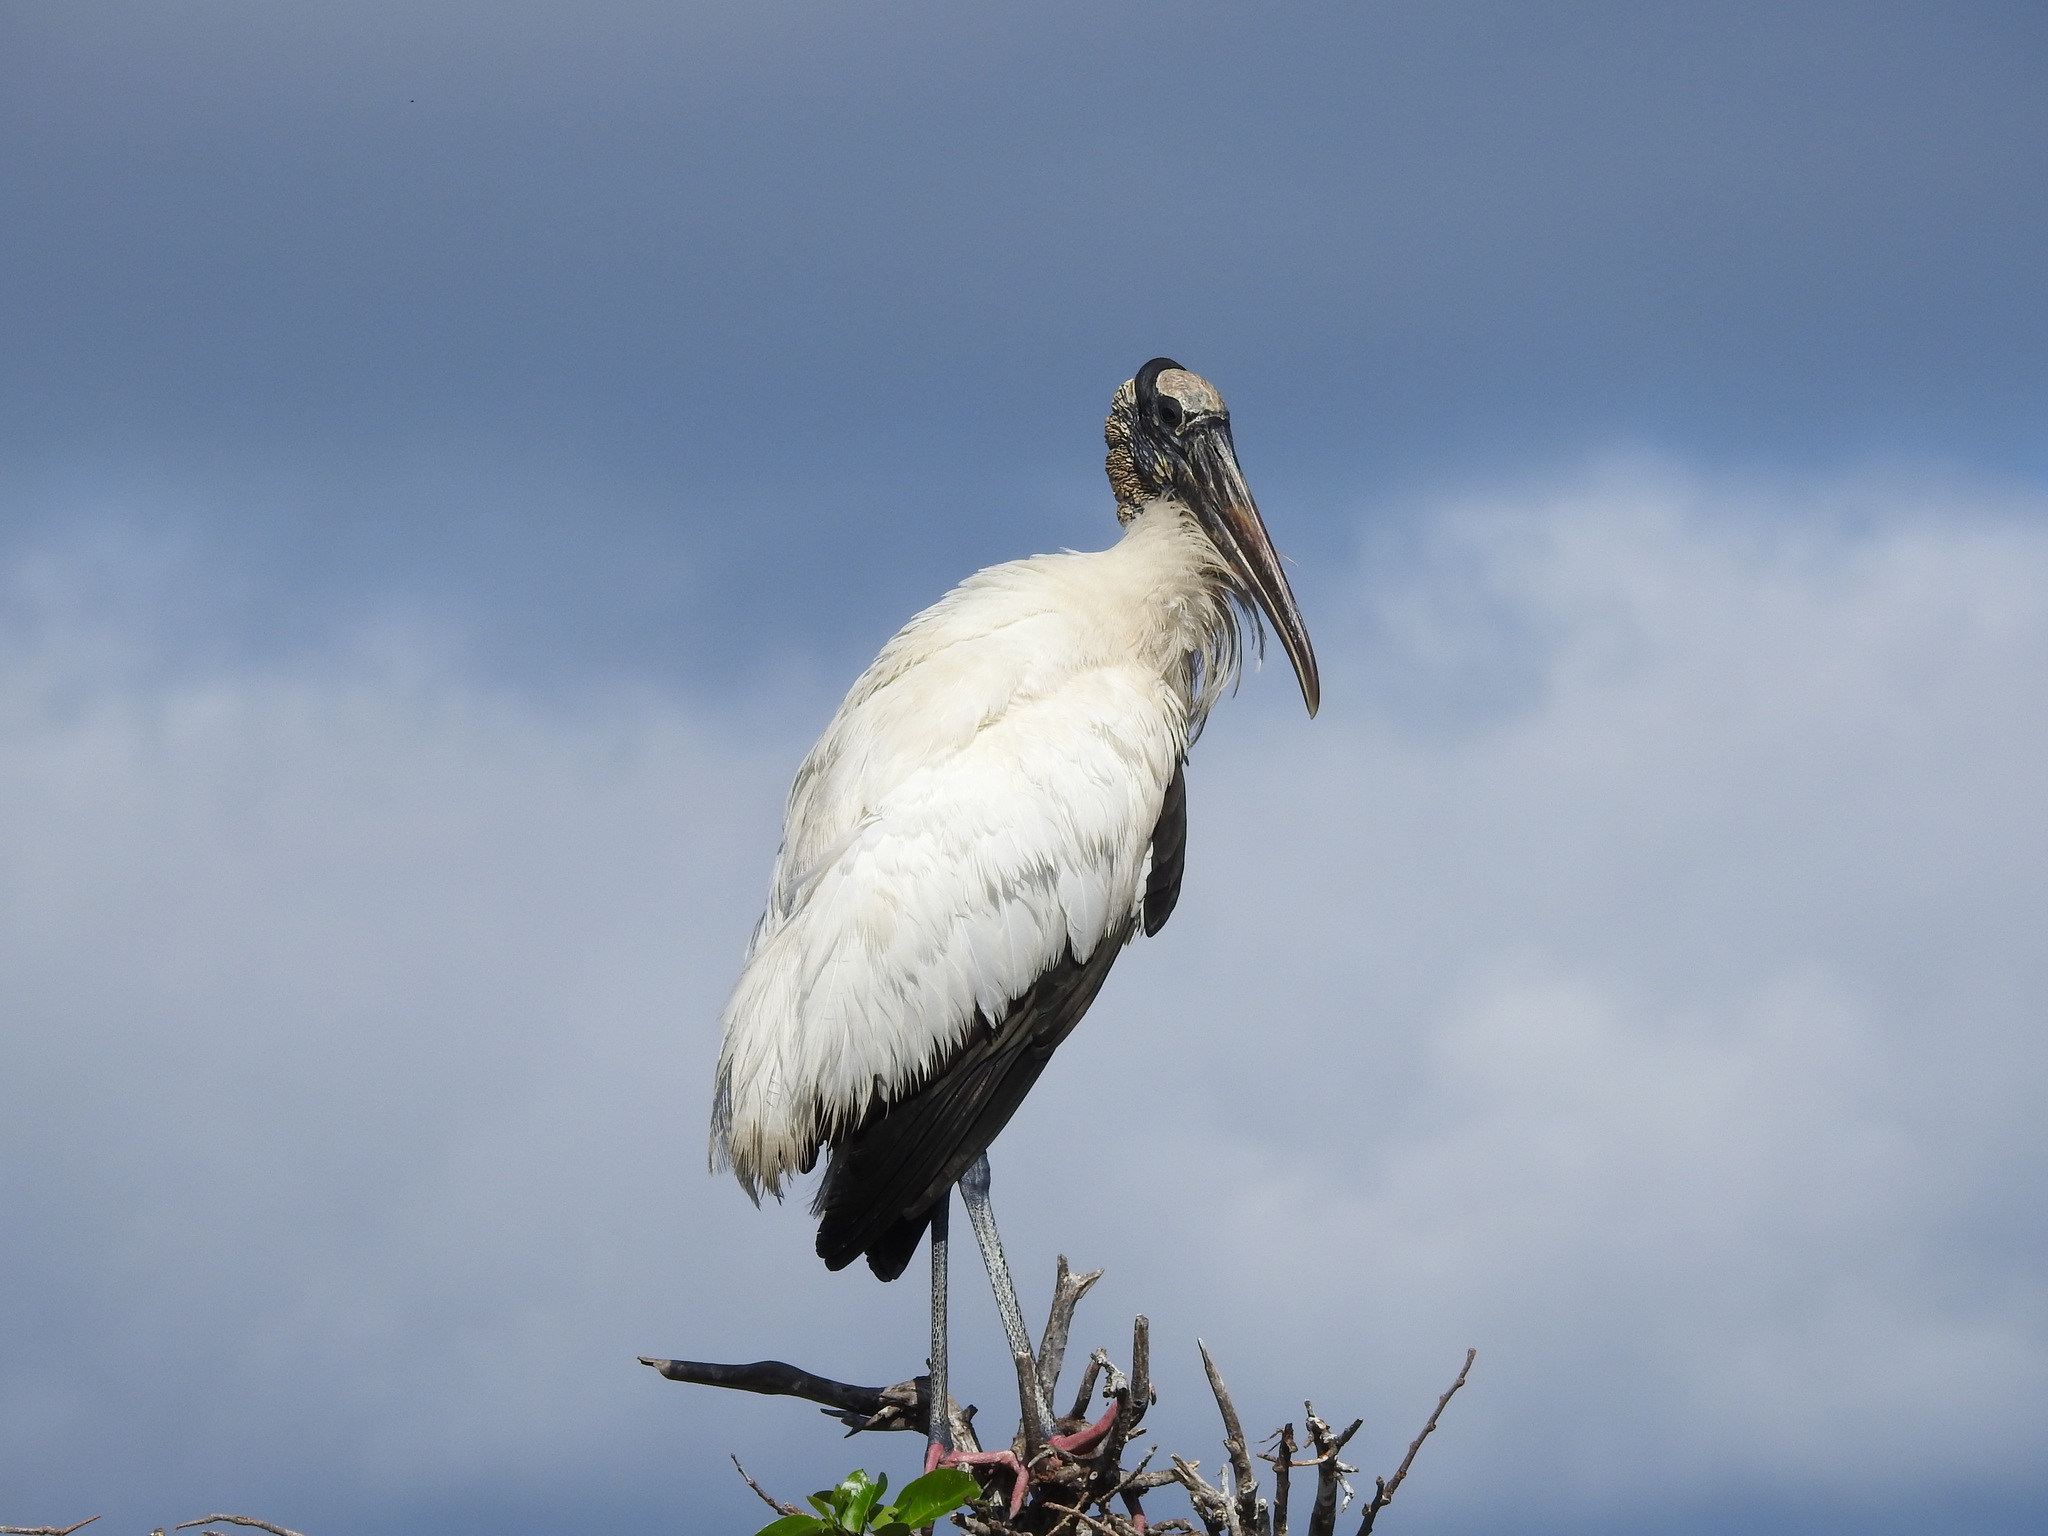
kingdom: Animalia
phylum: Chordata
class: Aves
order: Ciconiiformes
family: Ciconiidae
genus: Mycteria
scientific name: Mycteria americana
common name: Wood stork
